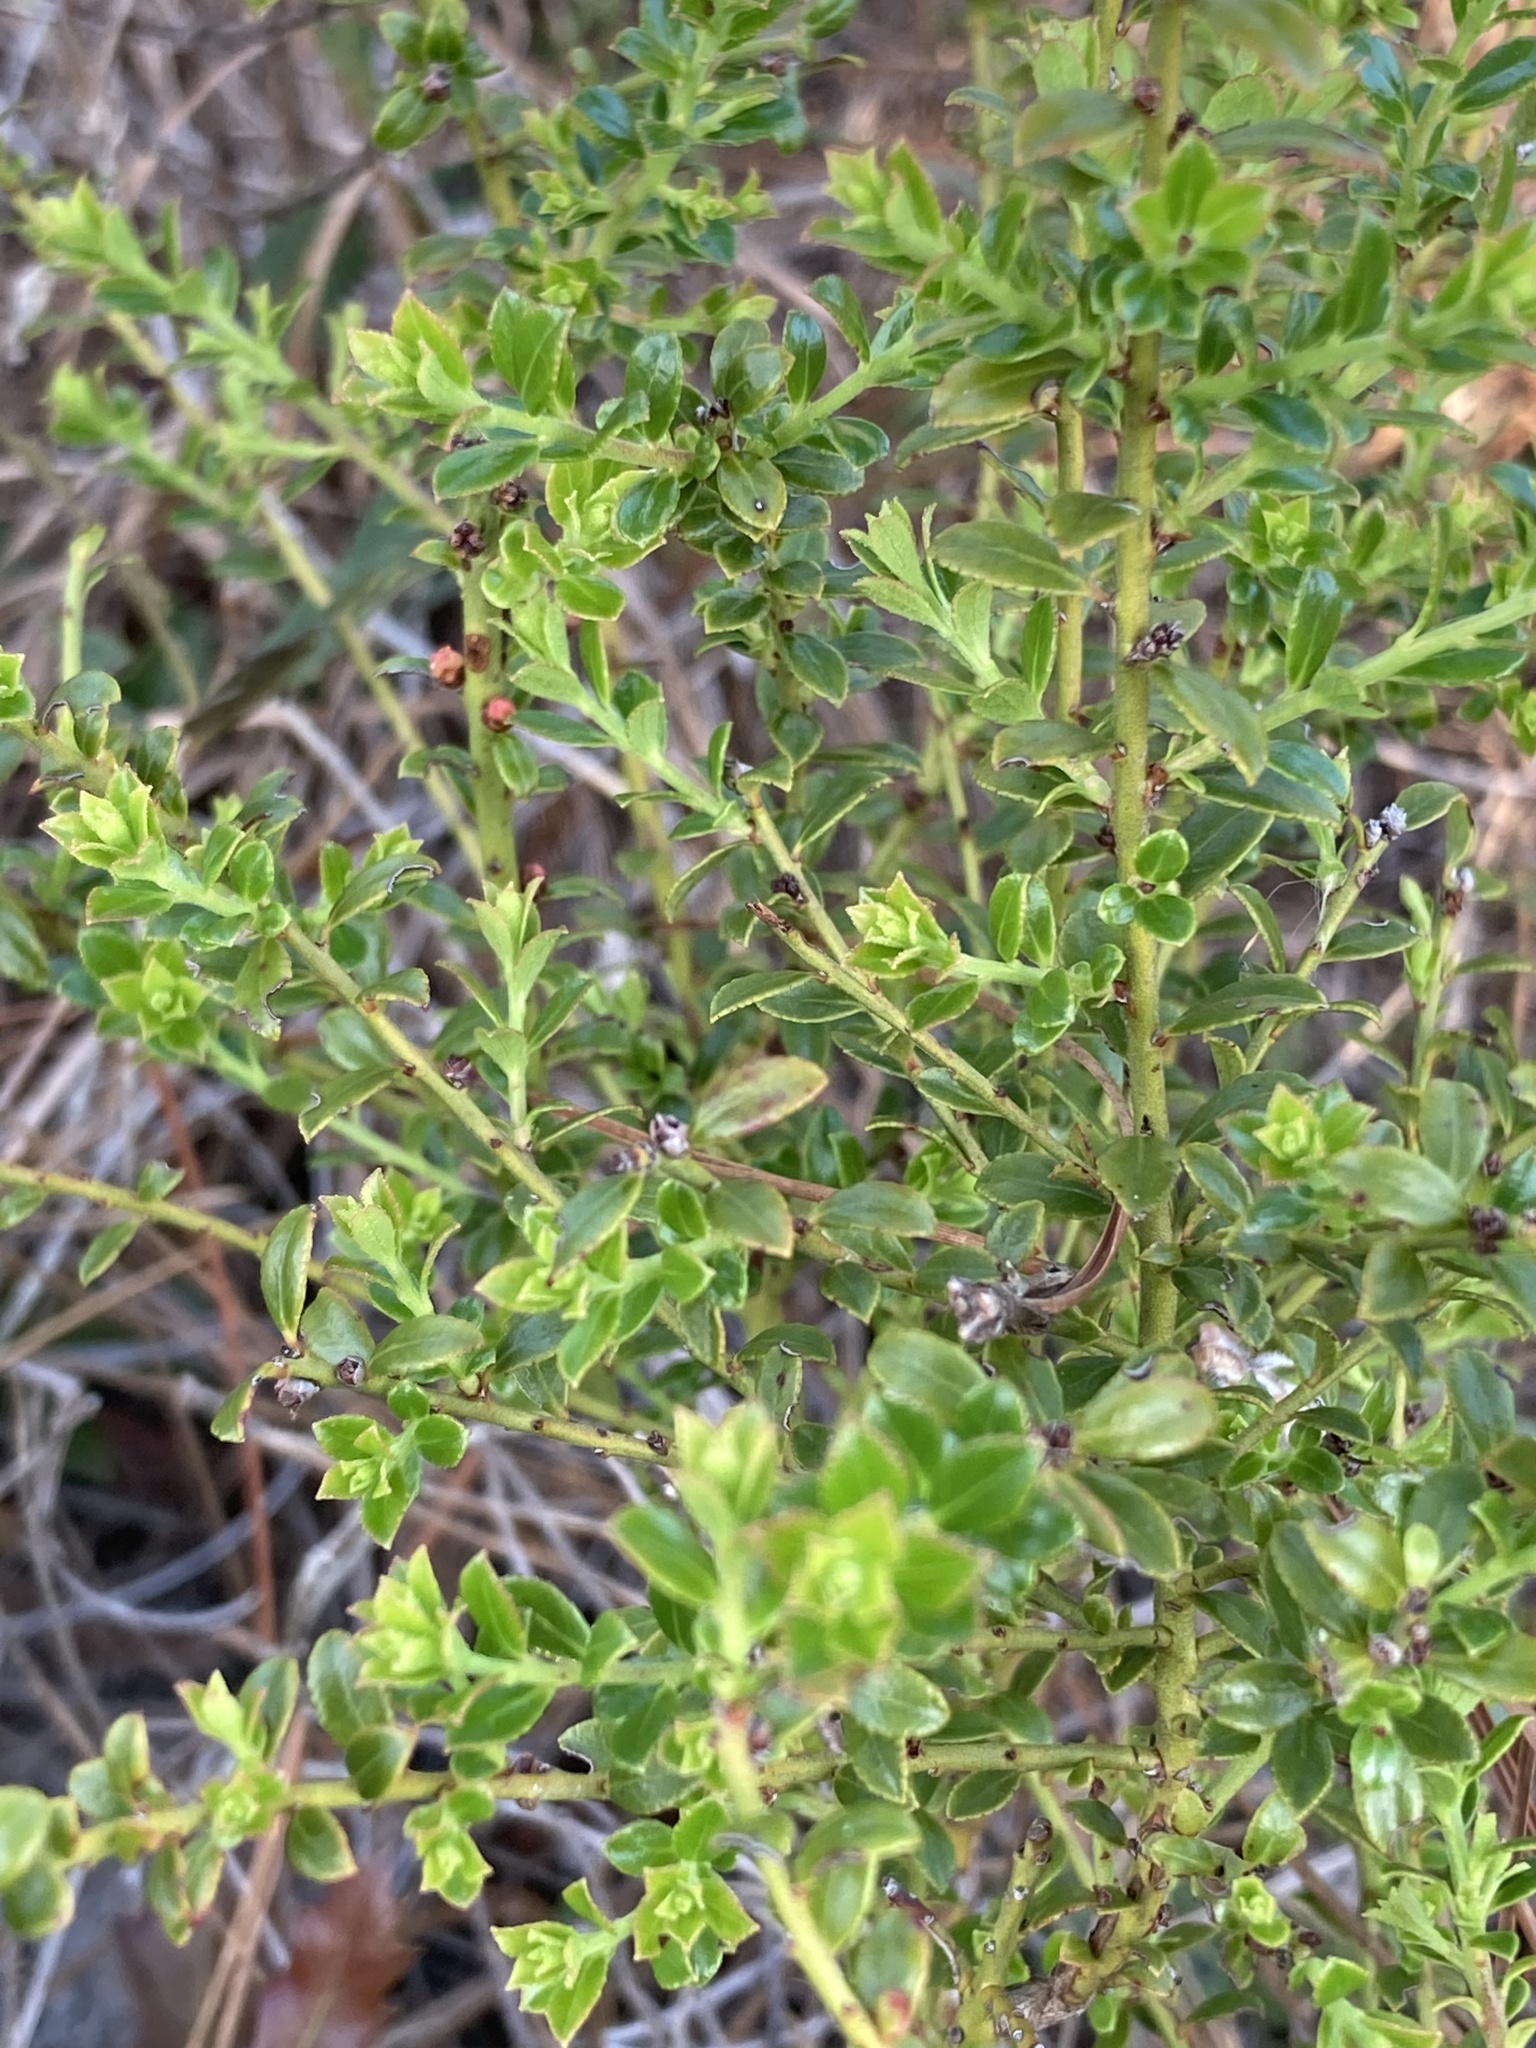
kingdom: Plantae
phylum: Tracheophyta
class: Magnoliopsida
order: Ericales
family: Ericaceae
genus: Vaccinium
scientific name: Vaccinium myrsinites
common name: Evergreen blueberry
